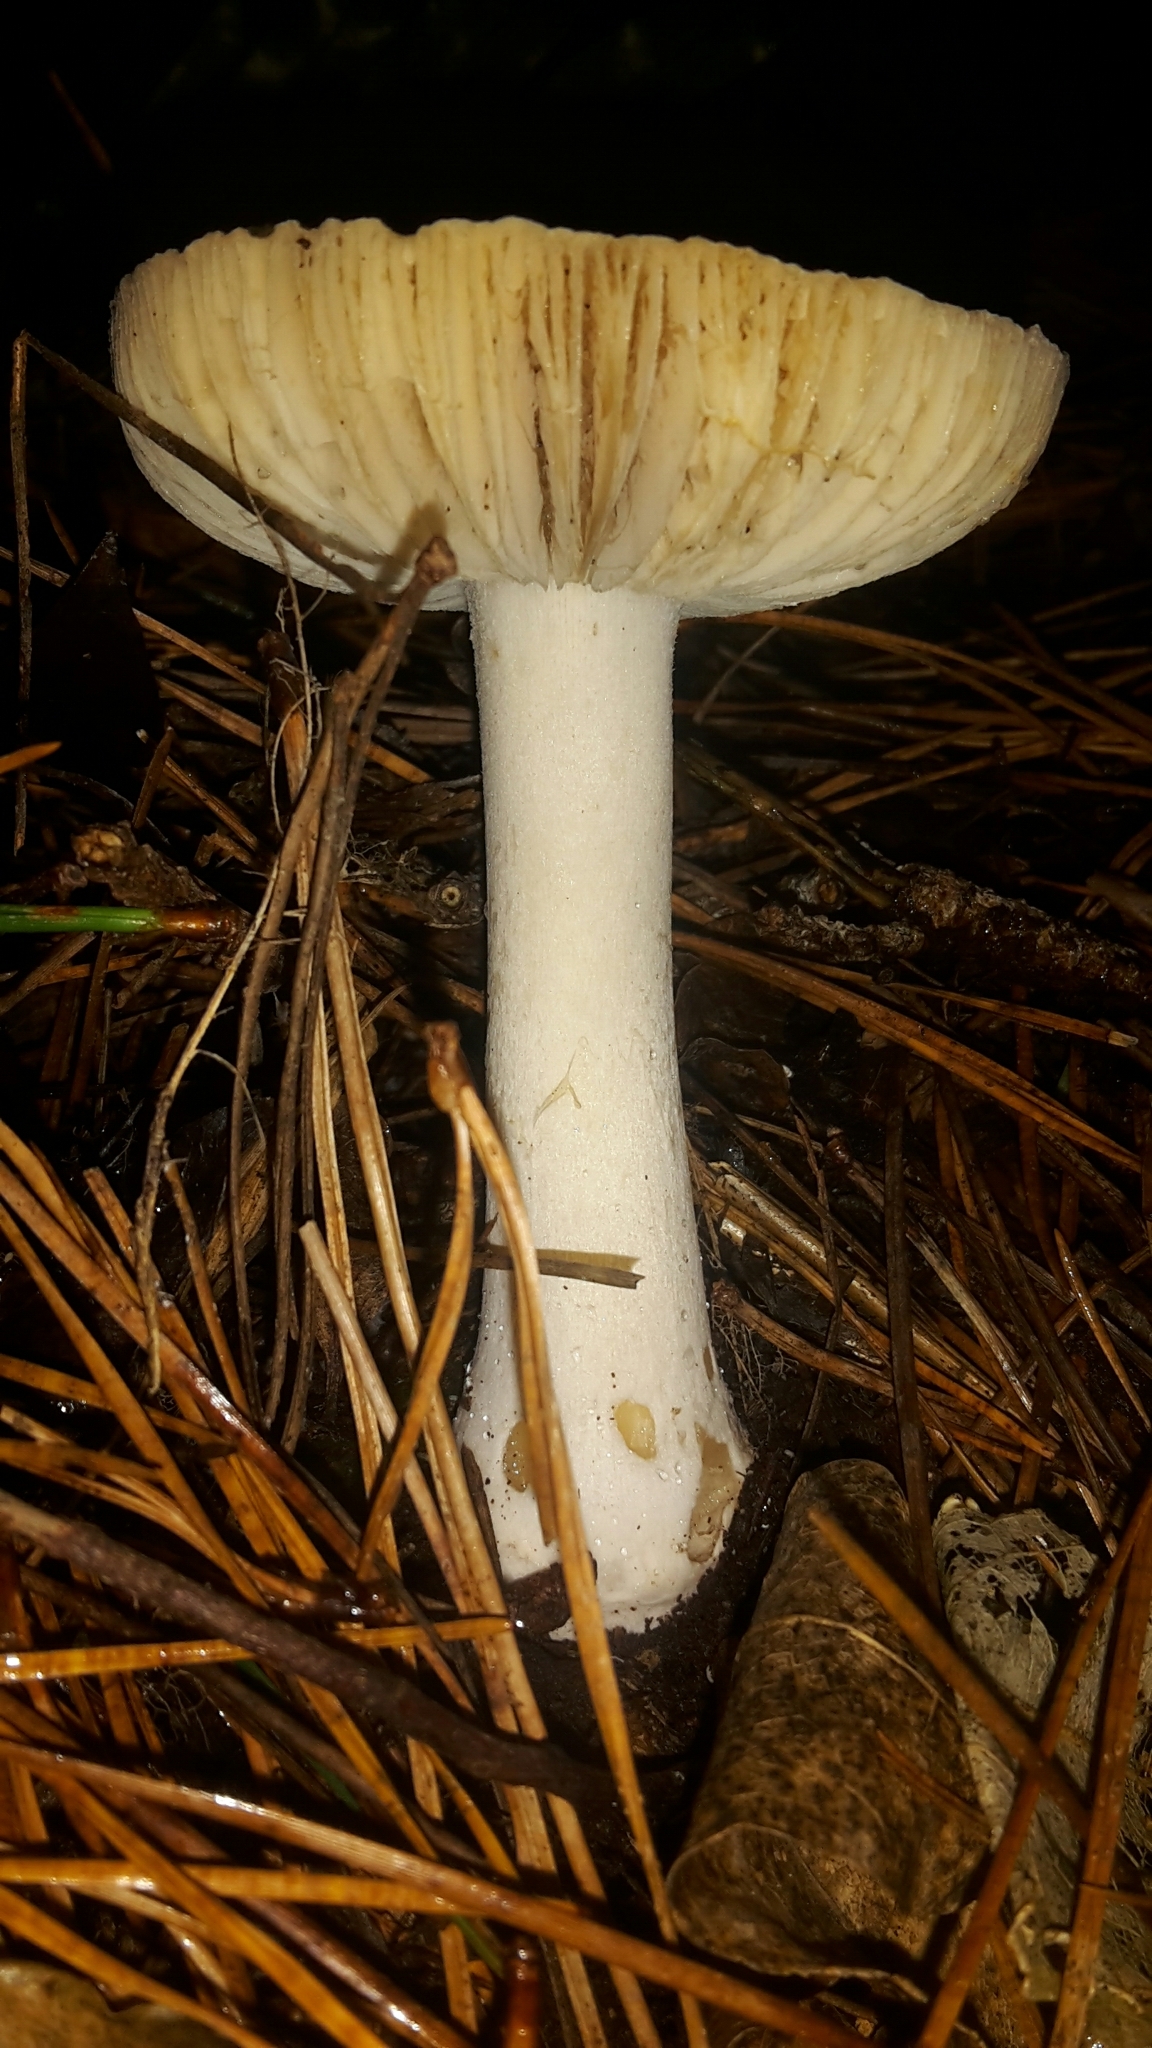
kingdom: Fungi
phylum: Basidiomycota
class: Agaricomycetes
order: Agaricales
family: Amanitaceae
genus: Amanita
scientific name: Amanita gemmata
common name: Jewelled amanita
